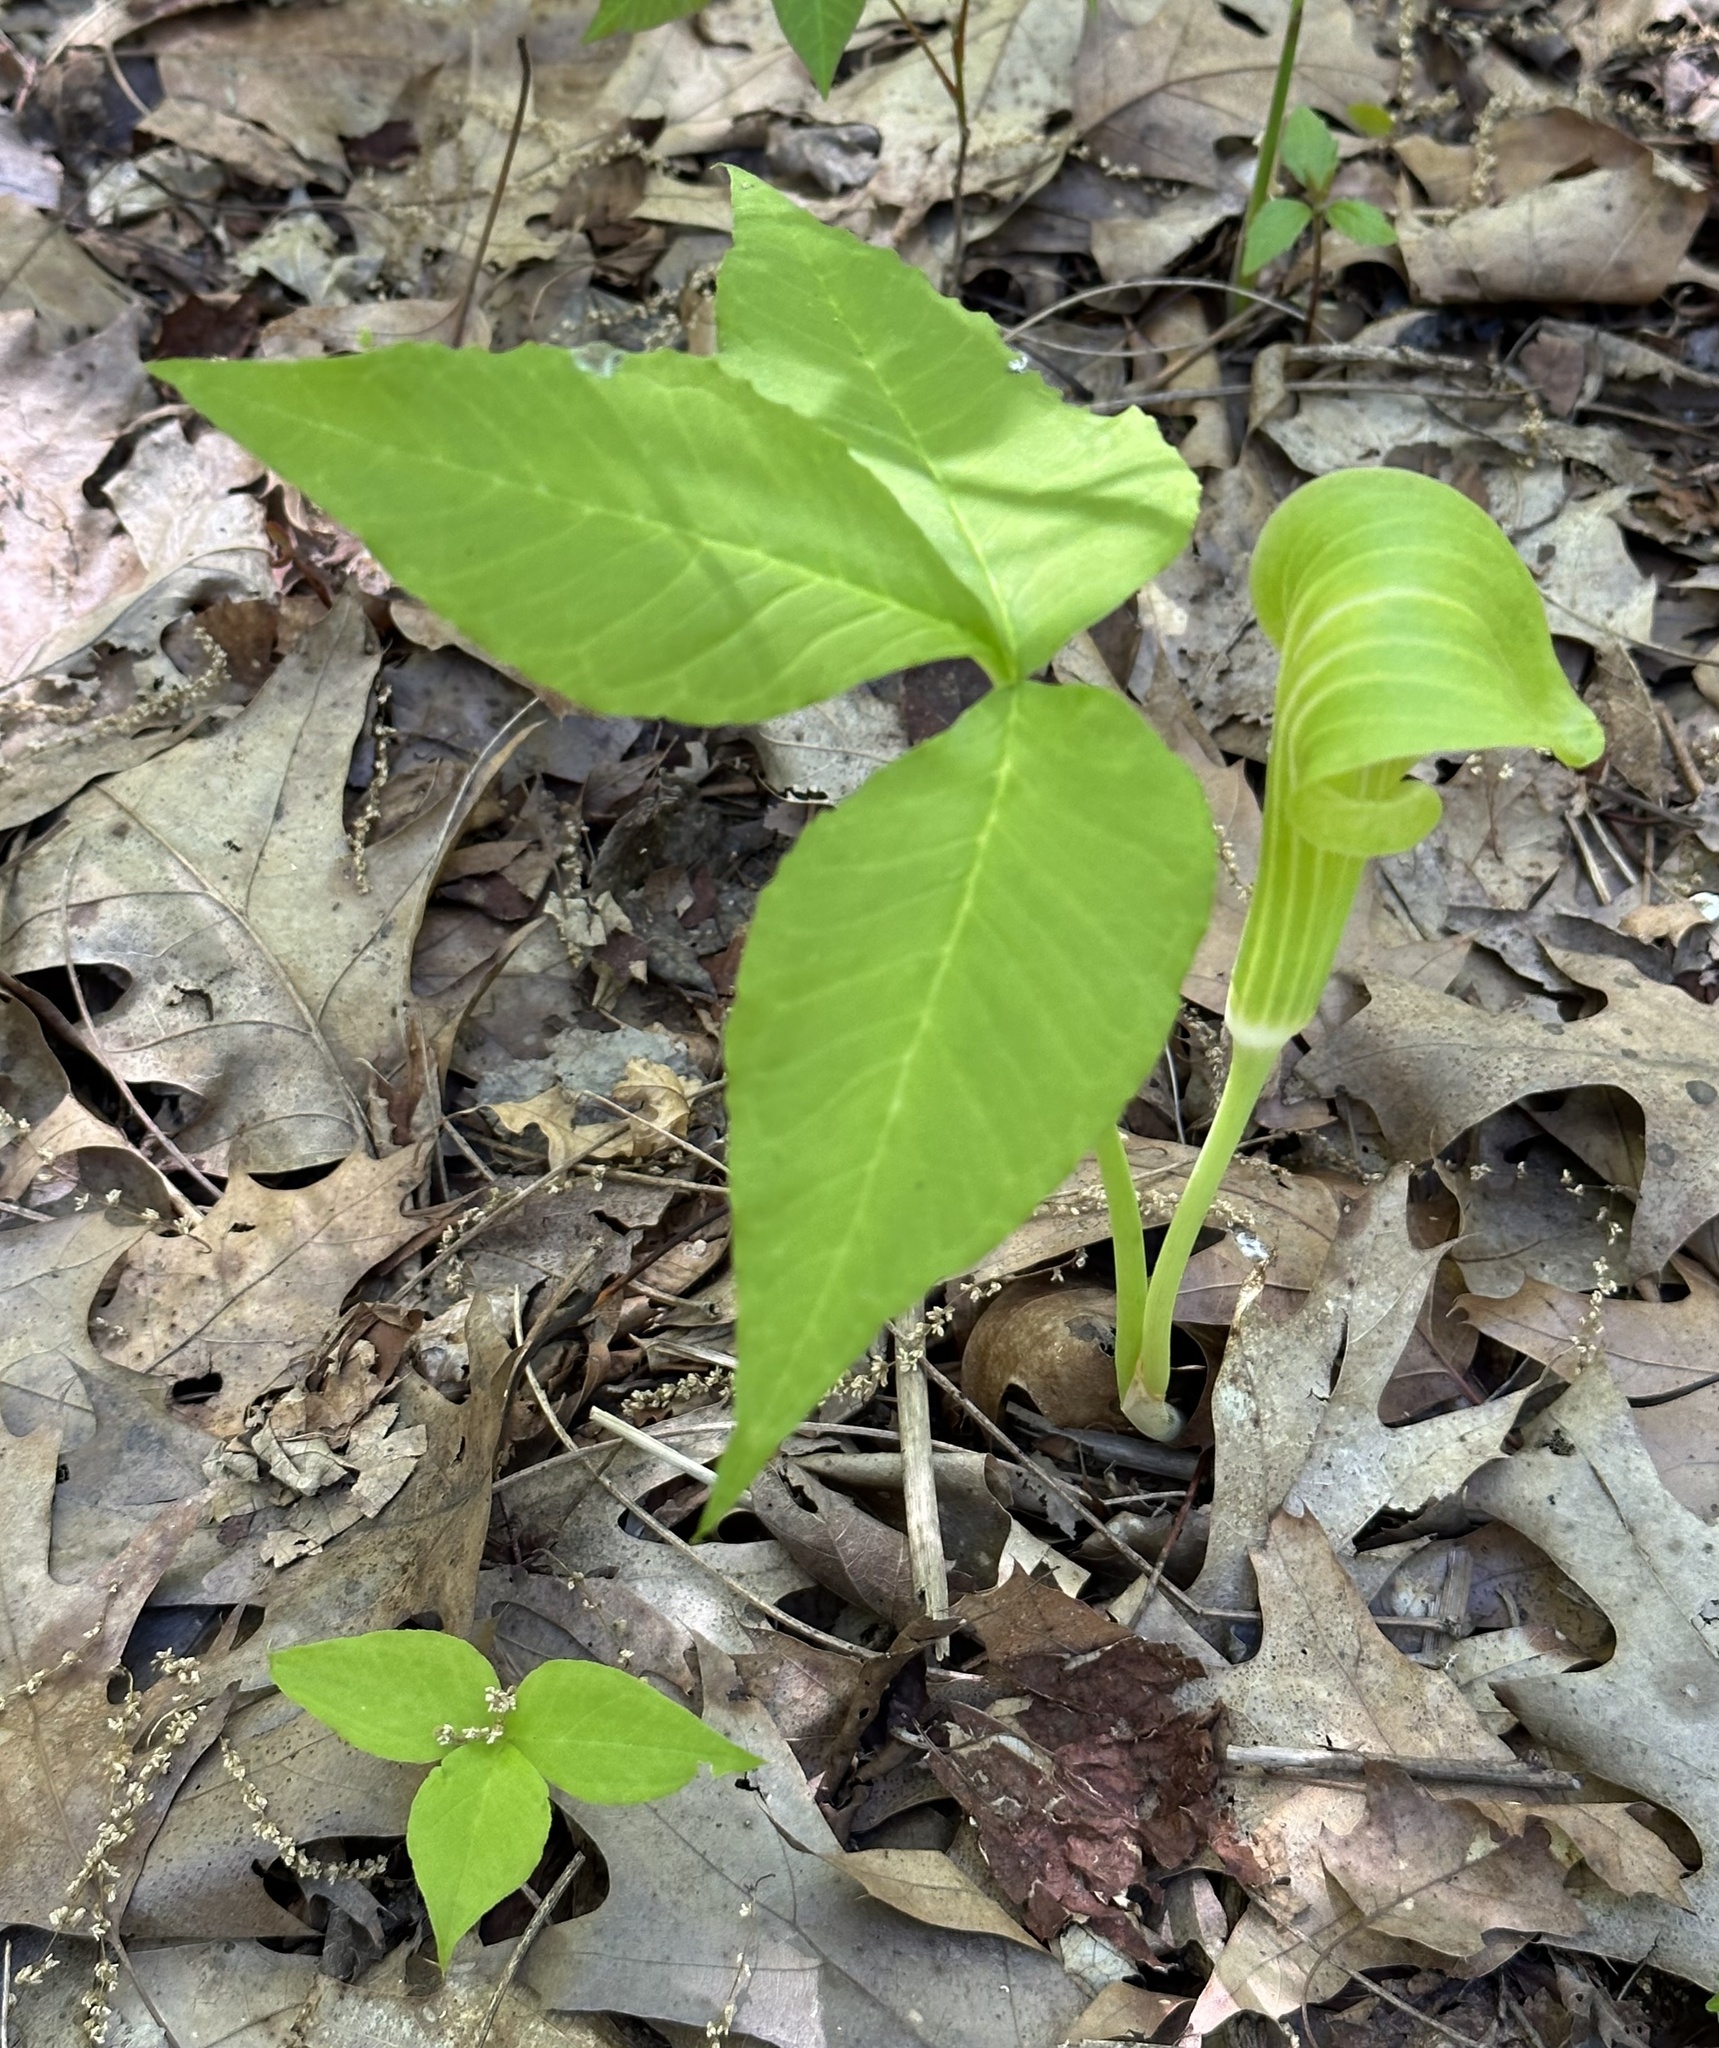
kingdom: Plantae
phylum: Tracheophyta
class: Liliopsida
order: Alismatales
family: Araceae
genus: Arisaema
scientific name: Arisaema triphyllum
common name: Jack-in-the-pulpit
